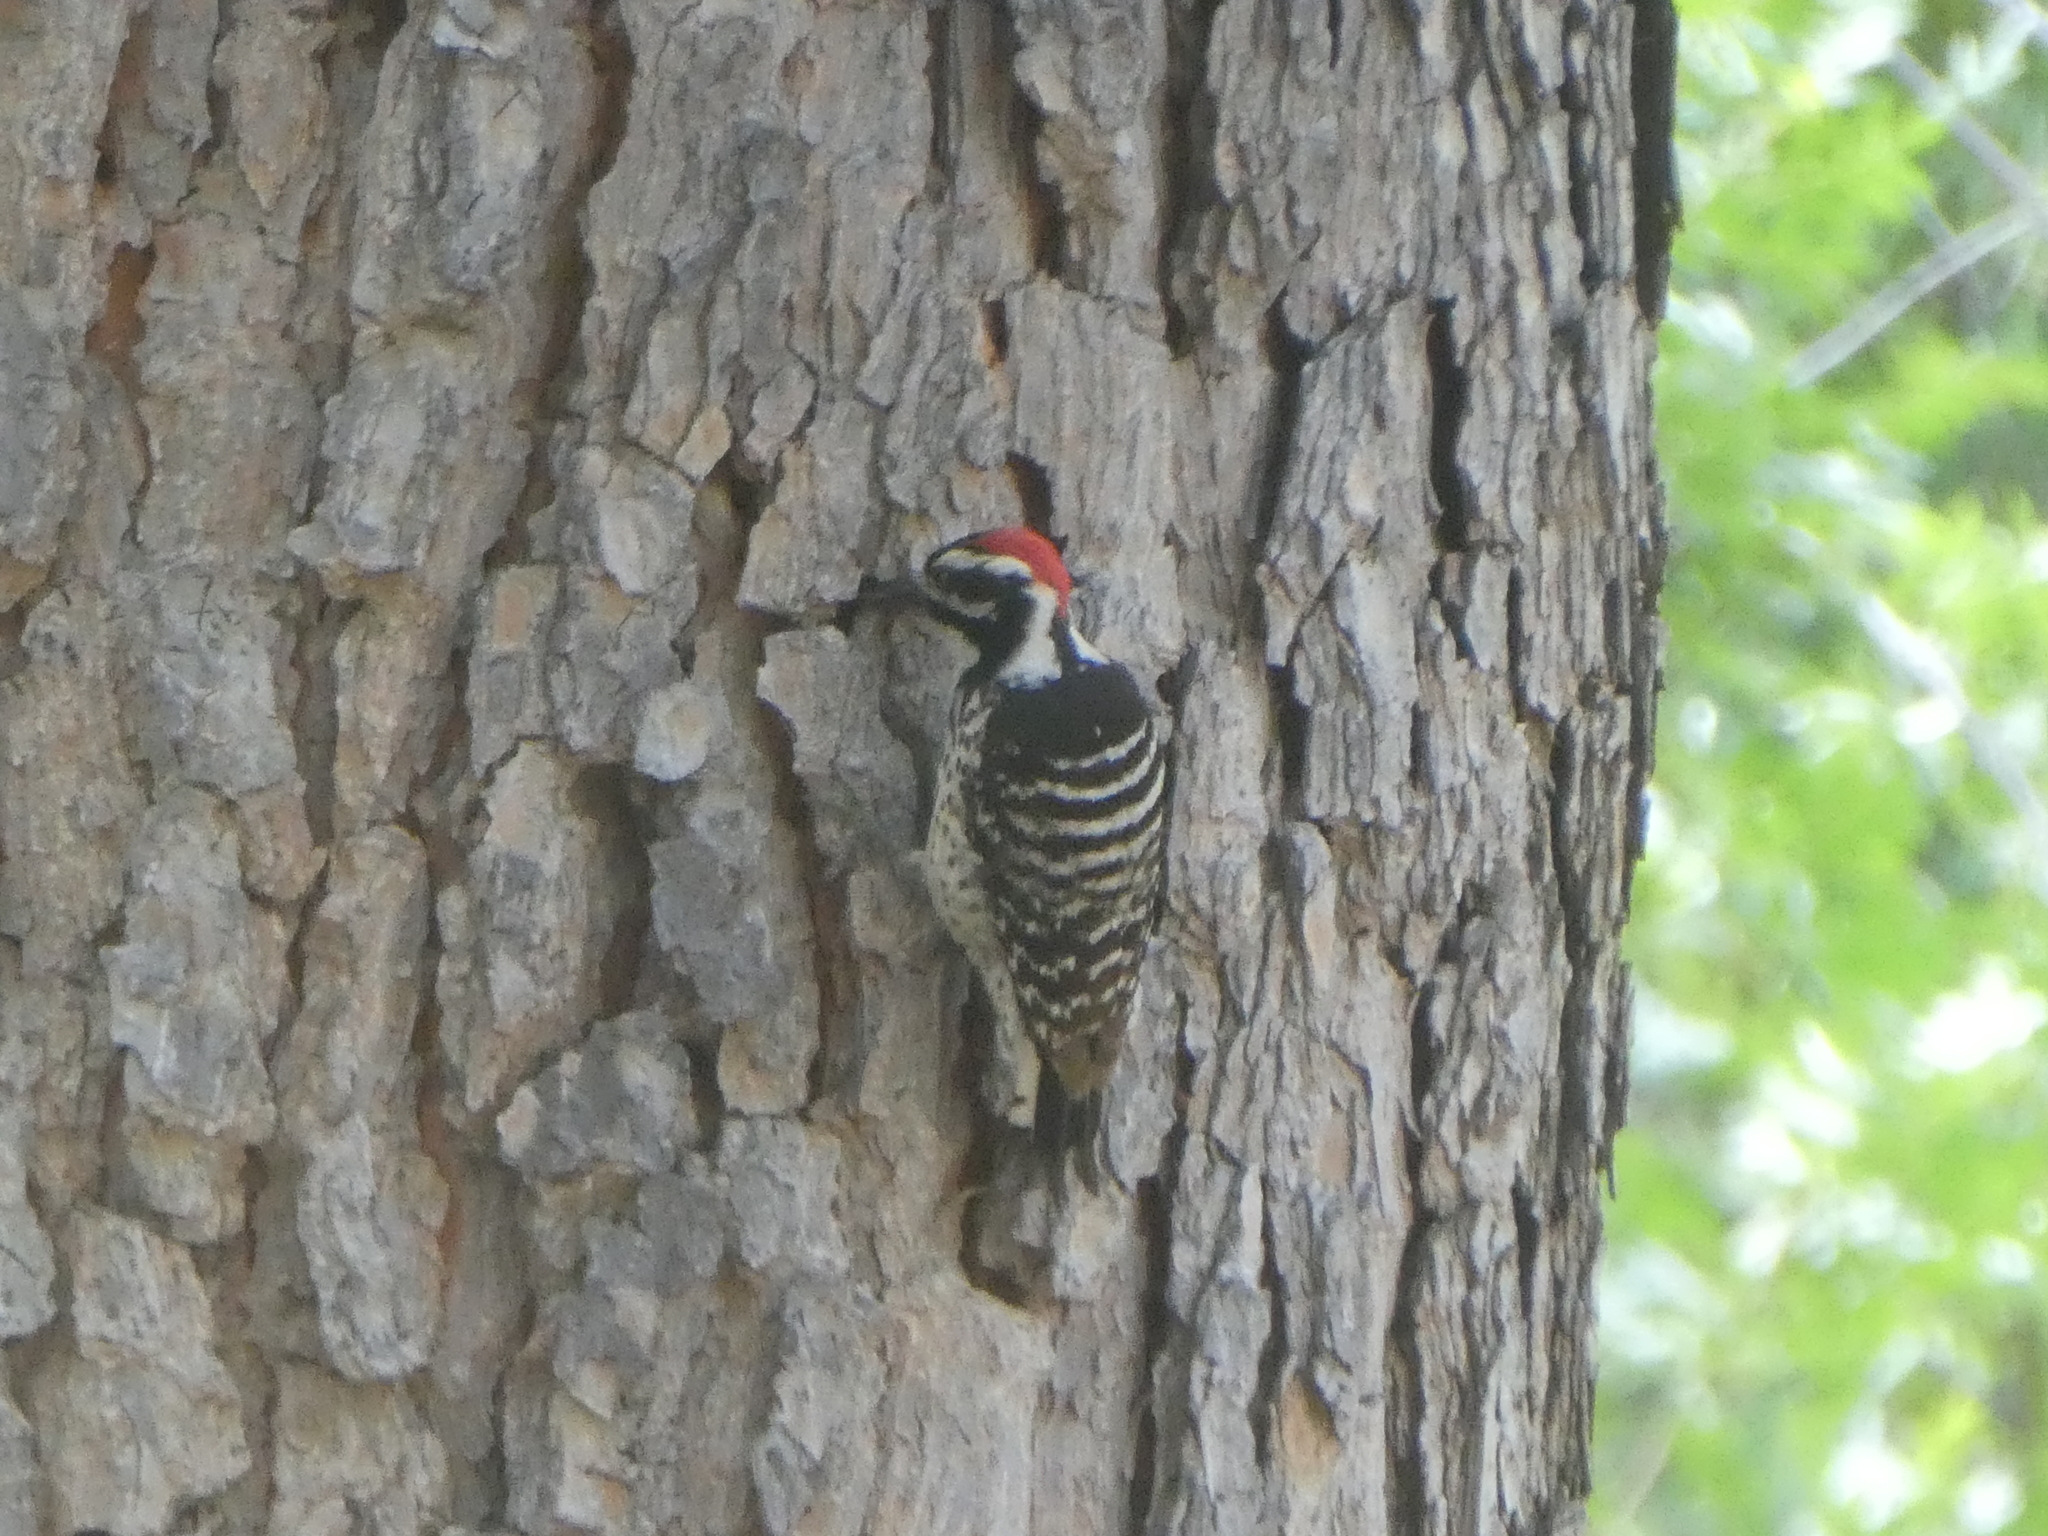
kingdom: Animalia
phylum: Chordata
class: Aves
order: Piciformes
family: Picidae
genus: Dryobates
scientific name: Dryobates nuttallii
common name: Nuttall's woodpecker
